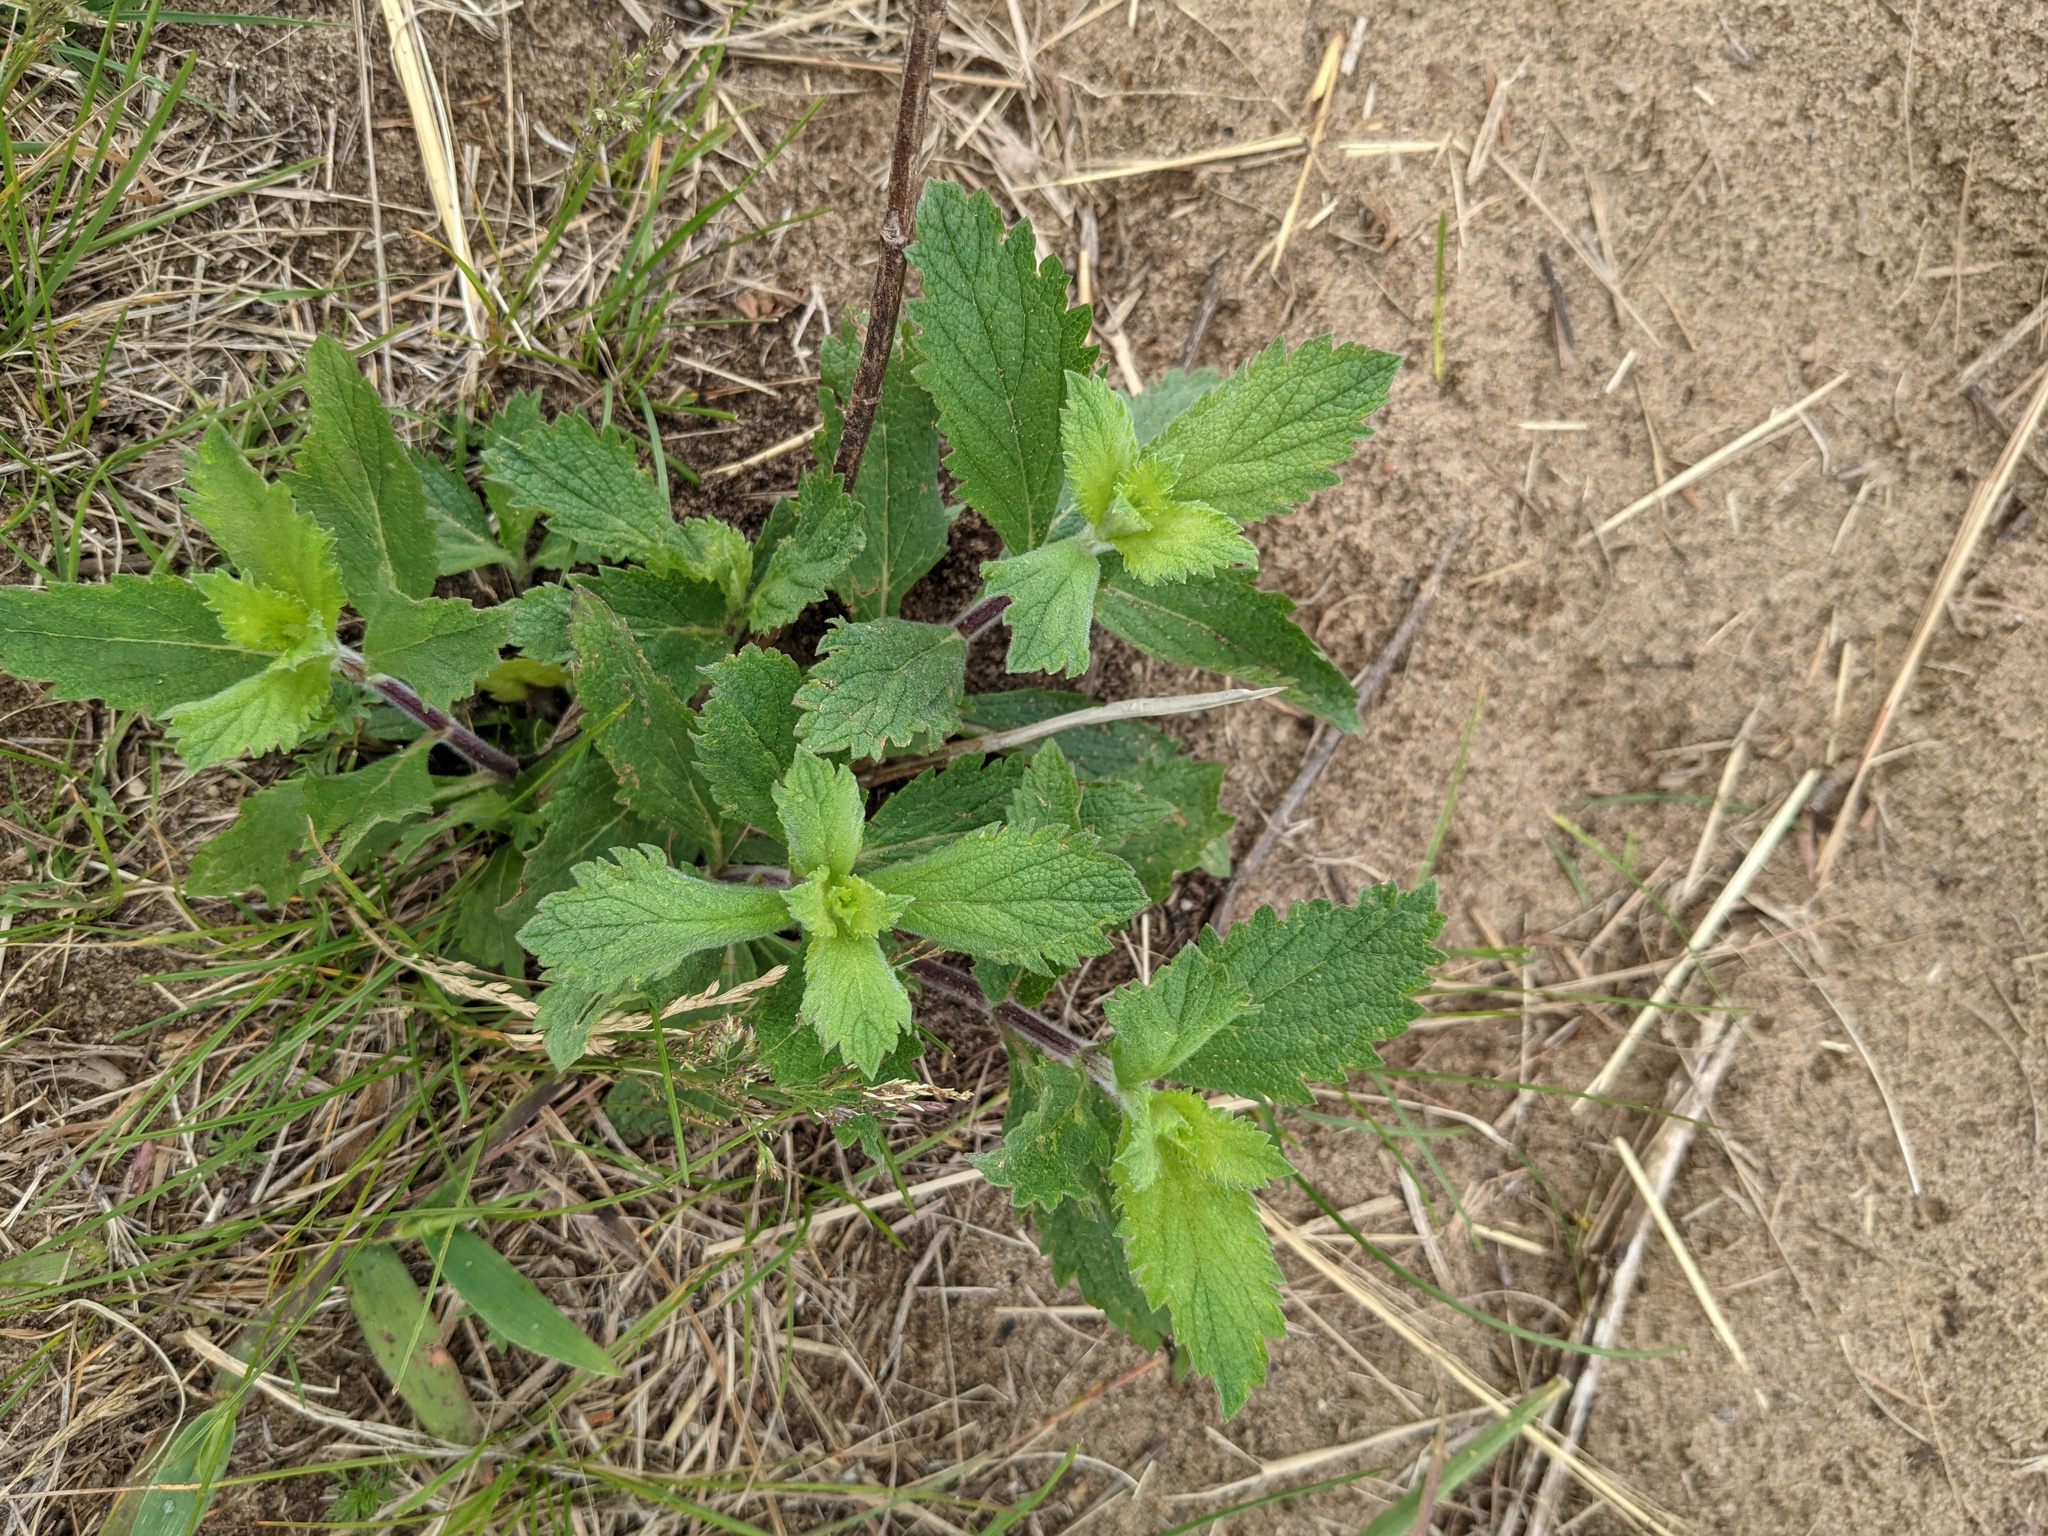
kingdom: Plantae
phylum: Tracheophyta
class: Magnoliopsida
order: Lamiales
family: Verbenaceae
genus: Verbena
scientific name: Verbena stricta
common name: Hoary vervain
